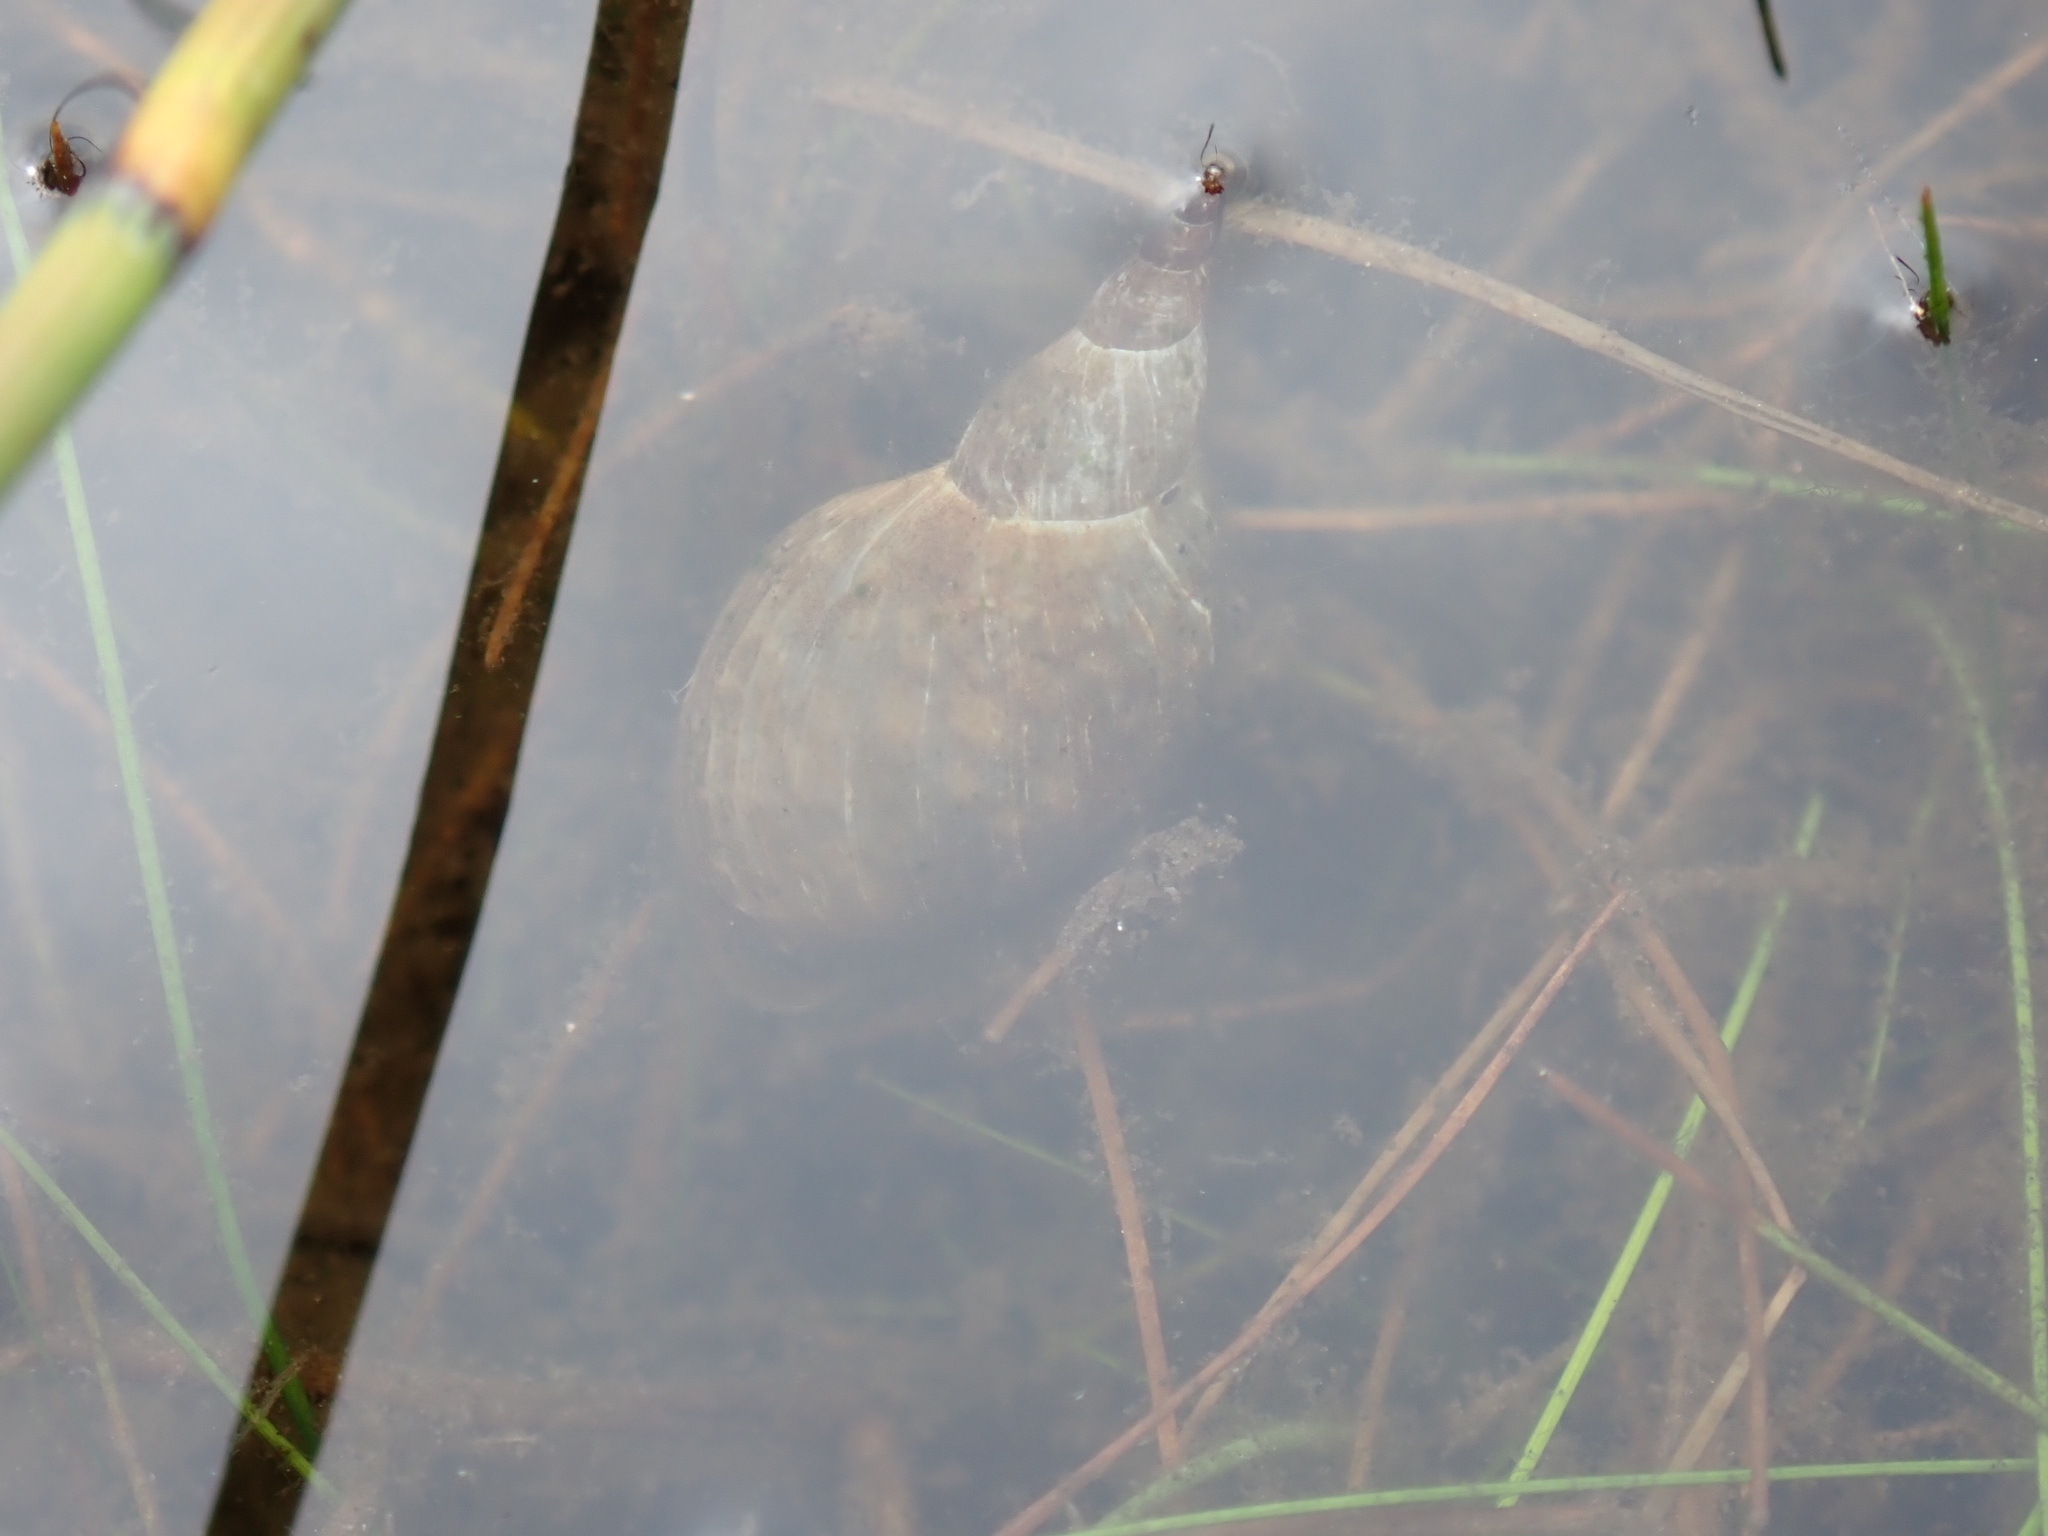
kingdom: Animalia
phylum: Mollusca
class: Gastropoda
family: Lymnaeidae
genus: Lymnaea
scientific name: Lymnaea stagnalis
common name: Great pond snail
